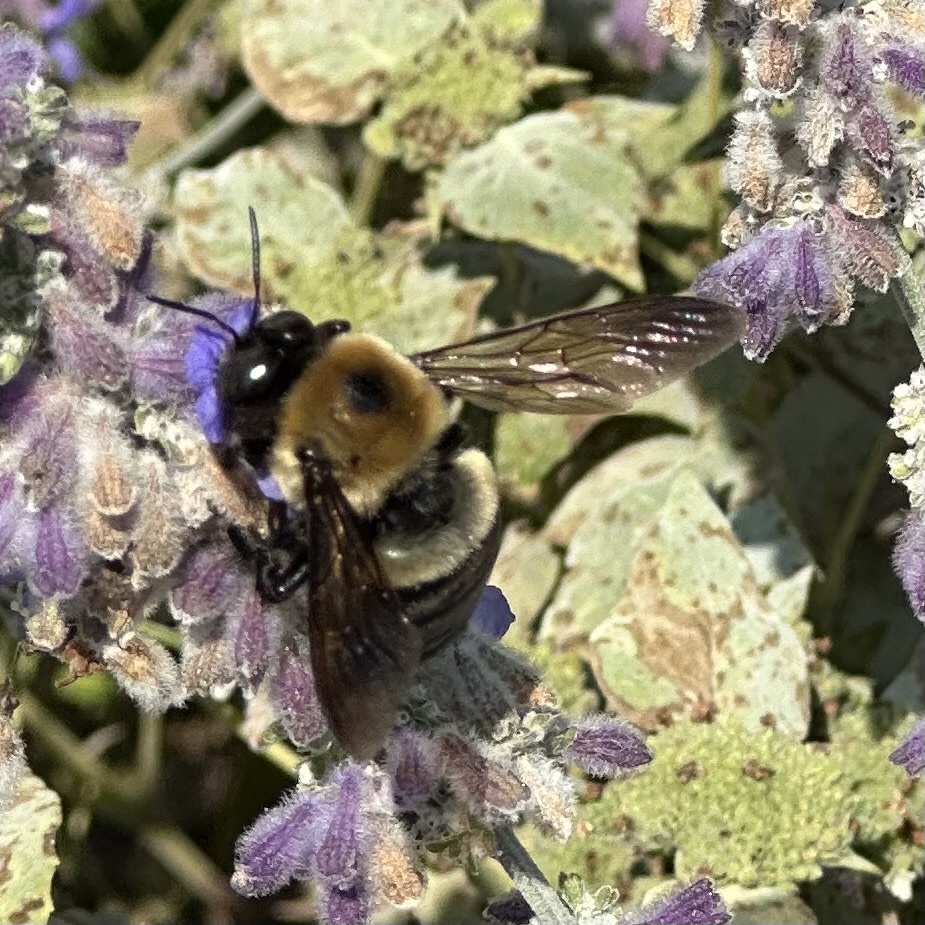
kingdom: Animalia
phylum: Arthropoda
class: Insecta
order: Hymenoptera
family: Apidae
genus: Xylocopa
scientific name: Xylocopa virginica
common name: Carpenter bee
